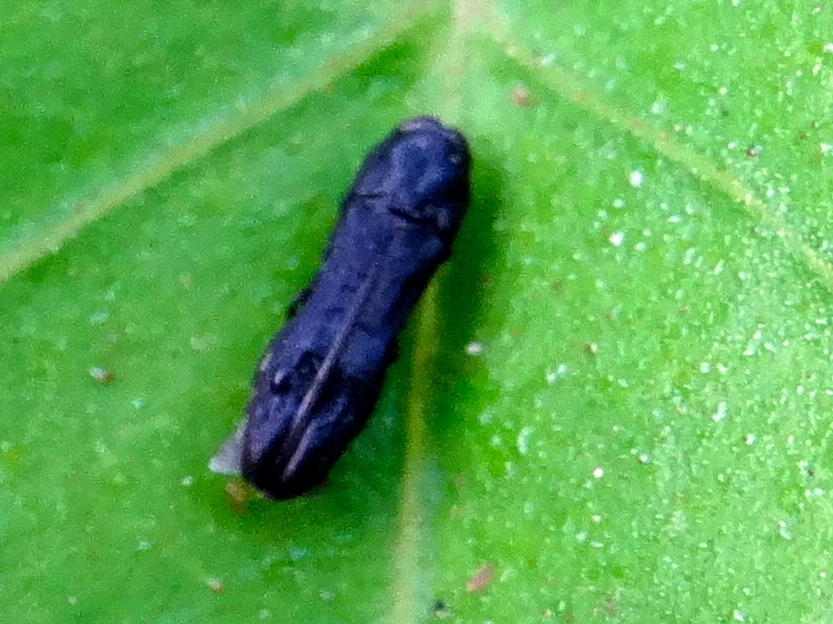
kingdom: Animalia
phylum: Arthropoda
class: Insecta
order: Coleoptera
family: Buprestidae
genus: Paragrilus
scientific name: Paragrilus
